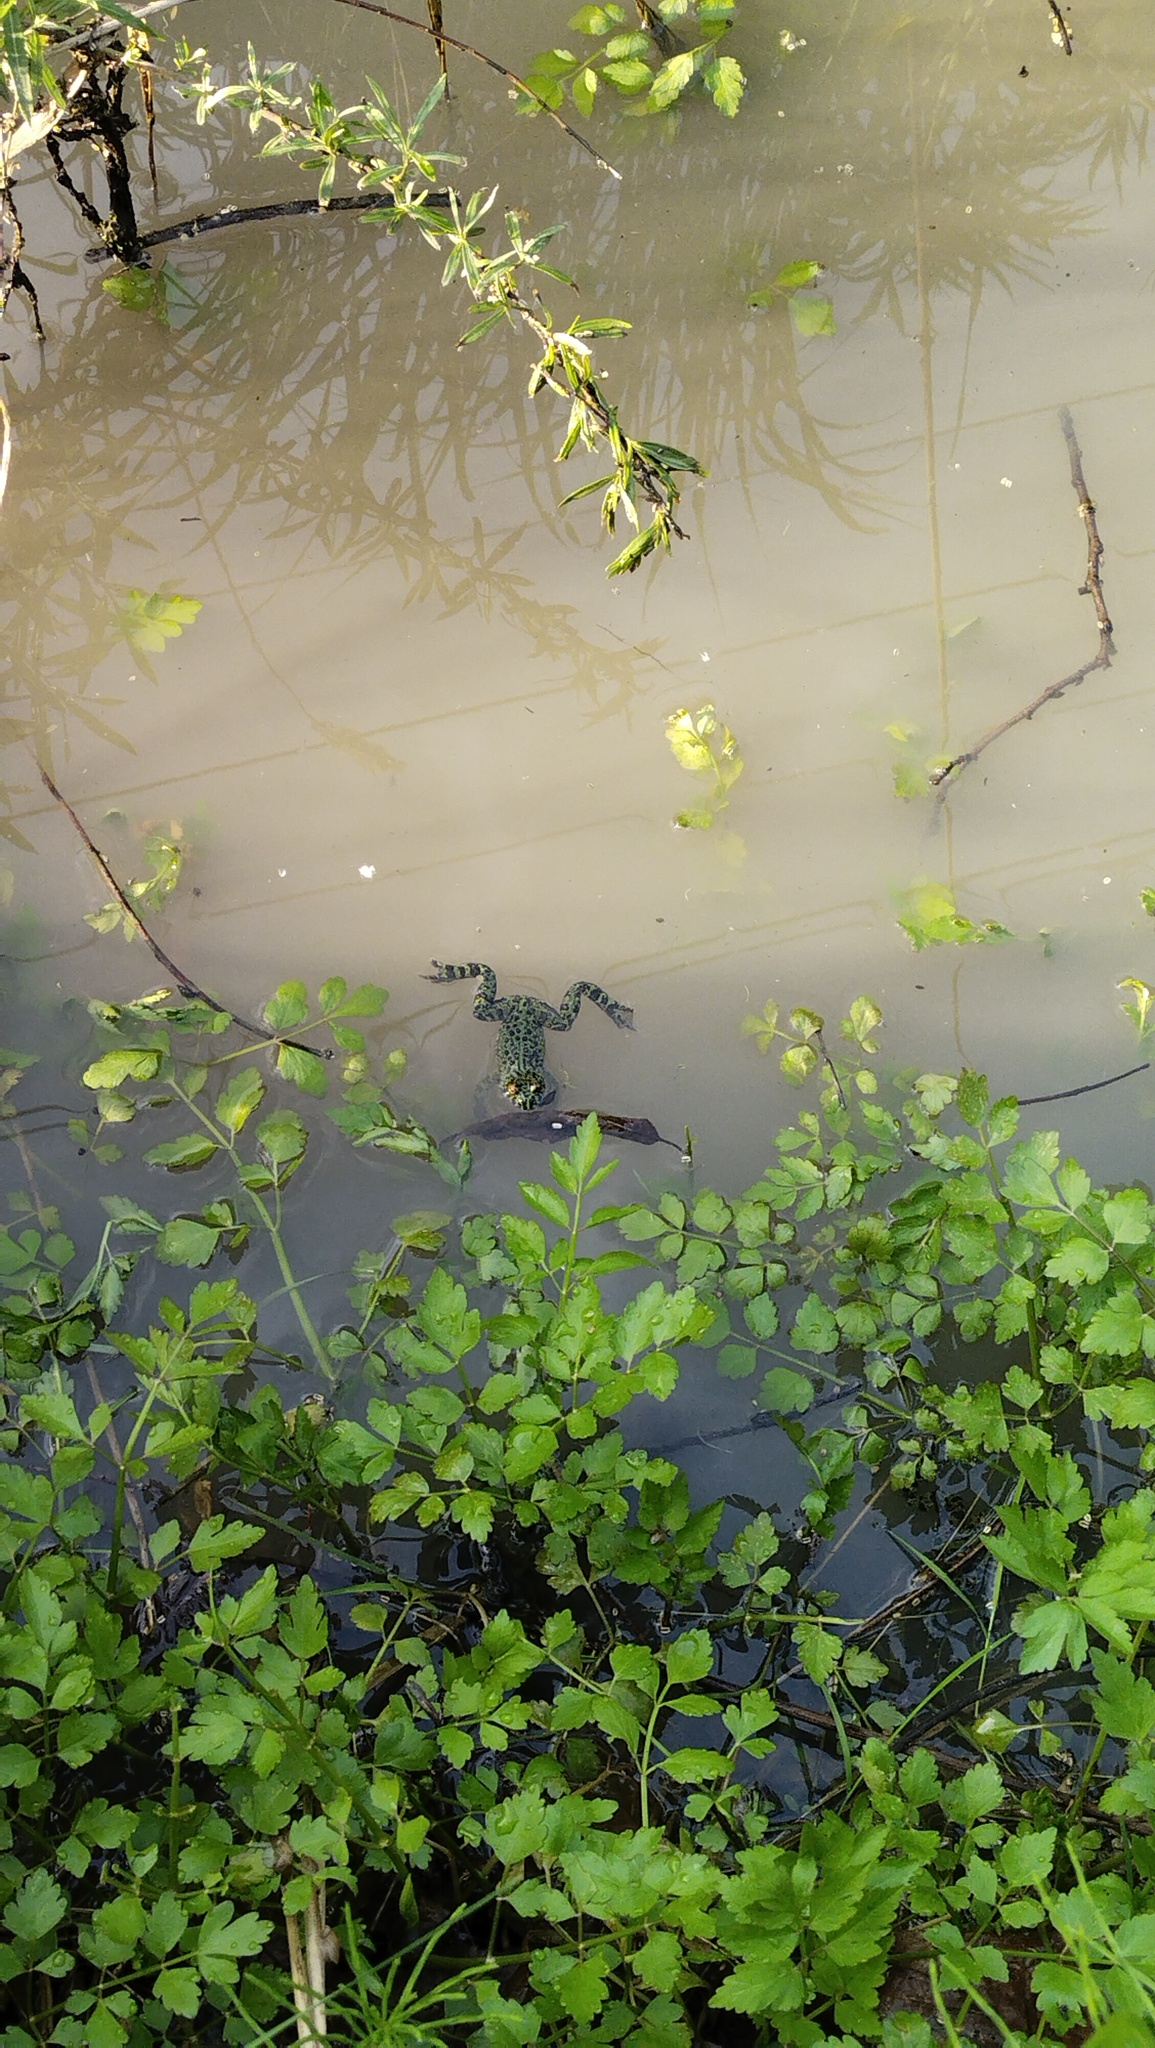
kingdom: Animalia
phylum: Chordata
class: Amphibia
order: Anura
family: Bombinatoridae
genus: Bombina
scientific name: Bombina orientalis
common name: Oriental firebelly toad
